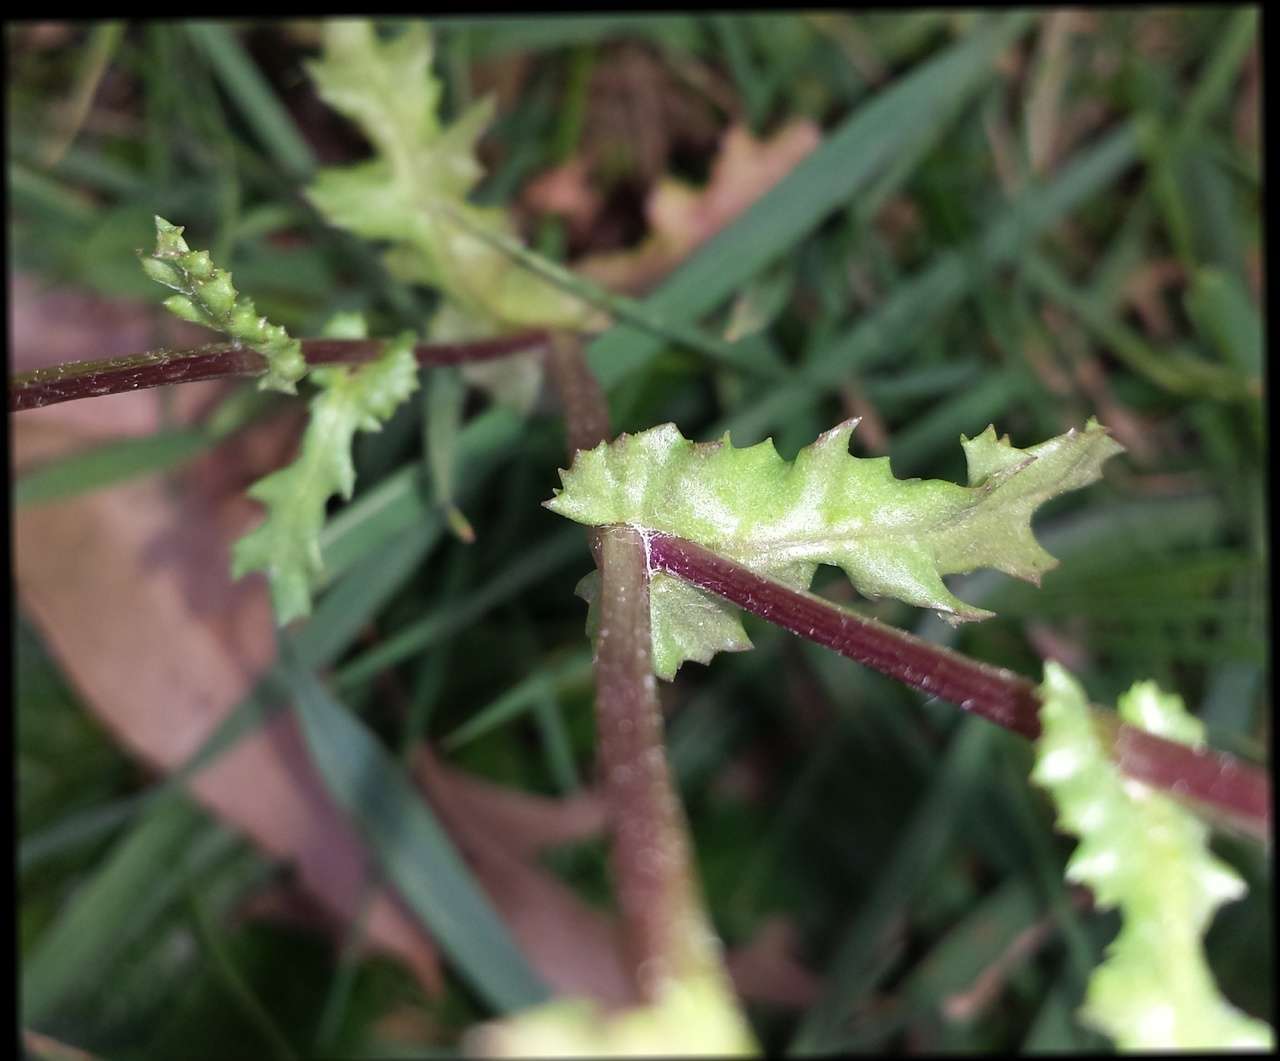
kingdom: Plantae
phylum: Tracheophyta
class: Magnoliopsida
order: Asterales
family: Asteraceae
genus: Senecio
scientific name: Senecio vulgaris
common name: Old-man-in-the-spring
